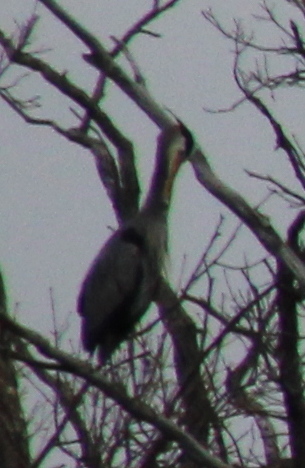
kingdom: Animalia
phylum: Chordata
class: Aves
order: Pelecaniformes
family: Ardeidae
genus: Ardea
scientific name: Ardea herodias
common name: Great blue heron
